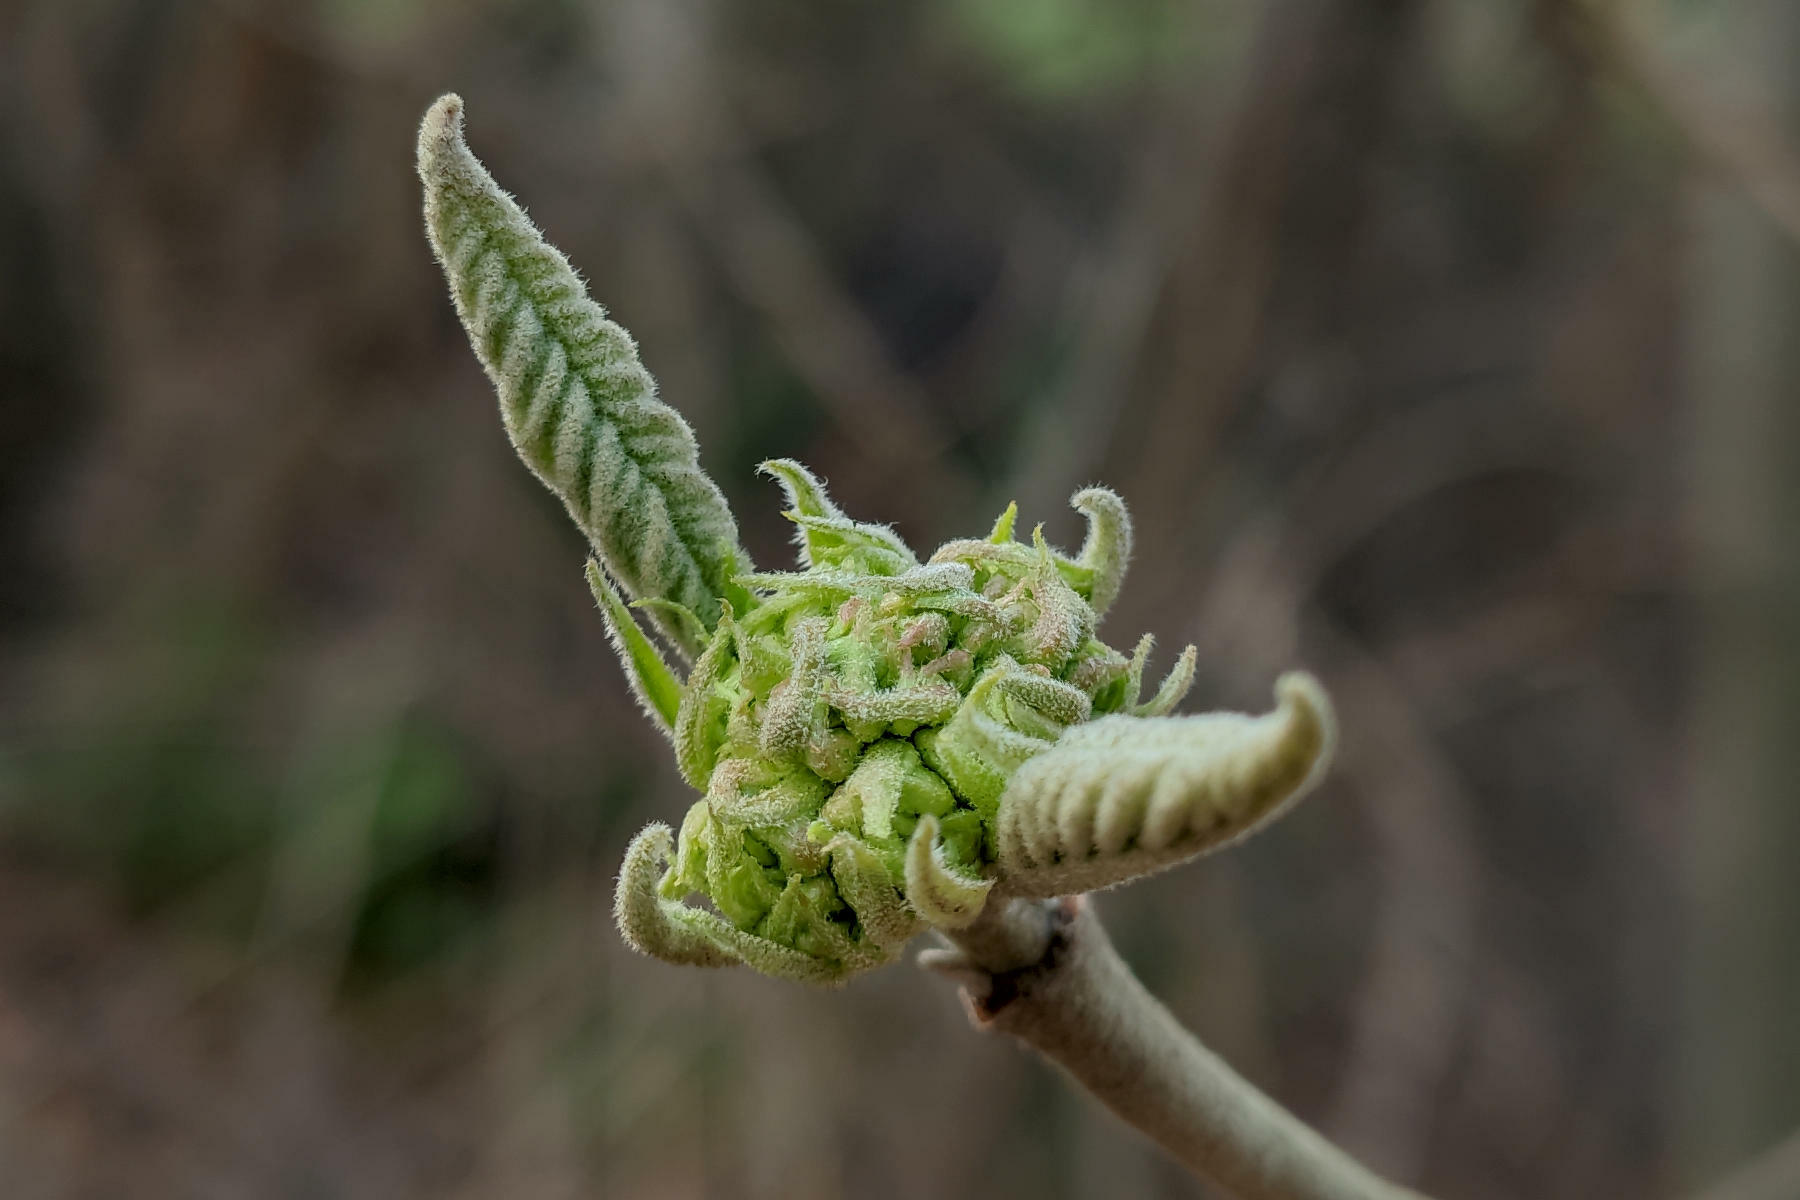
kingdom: Plantae
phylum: Tracheophyta
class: Magnoliopsida
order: Dipsacales
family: Viburnaceae
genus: Viburnum
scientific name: Viburnum lantana
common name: Wayfaring tree
